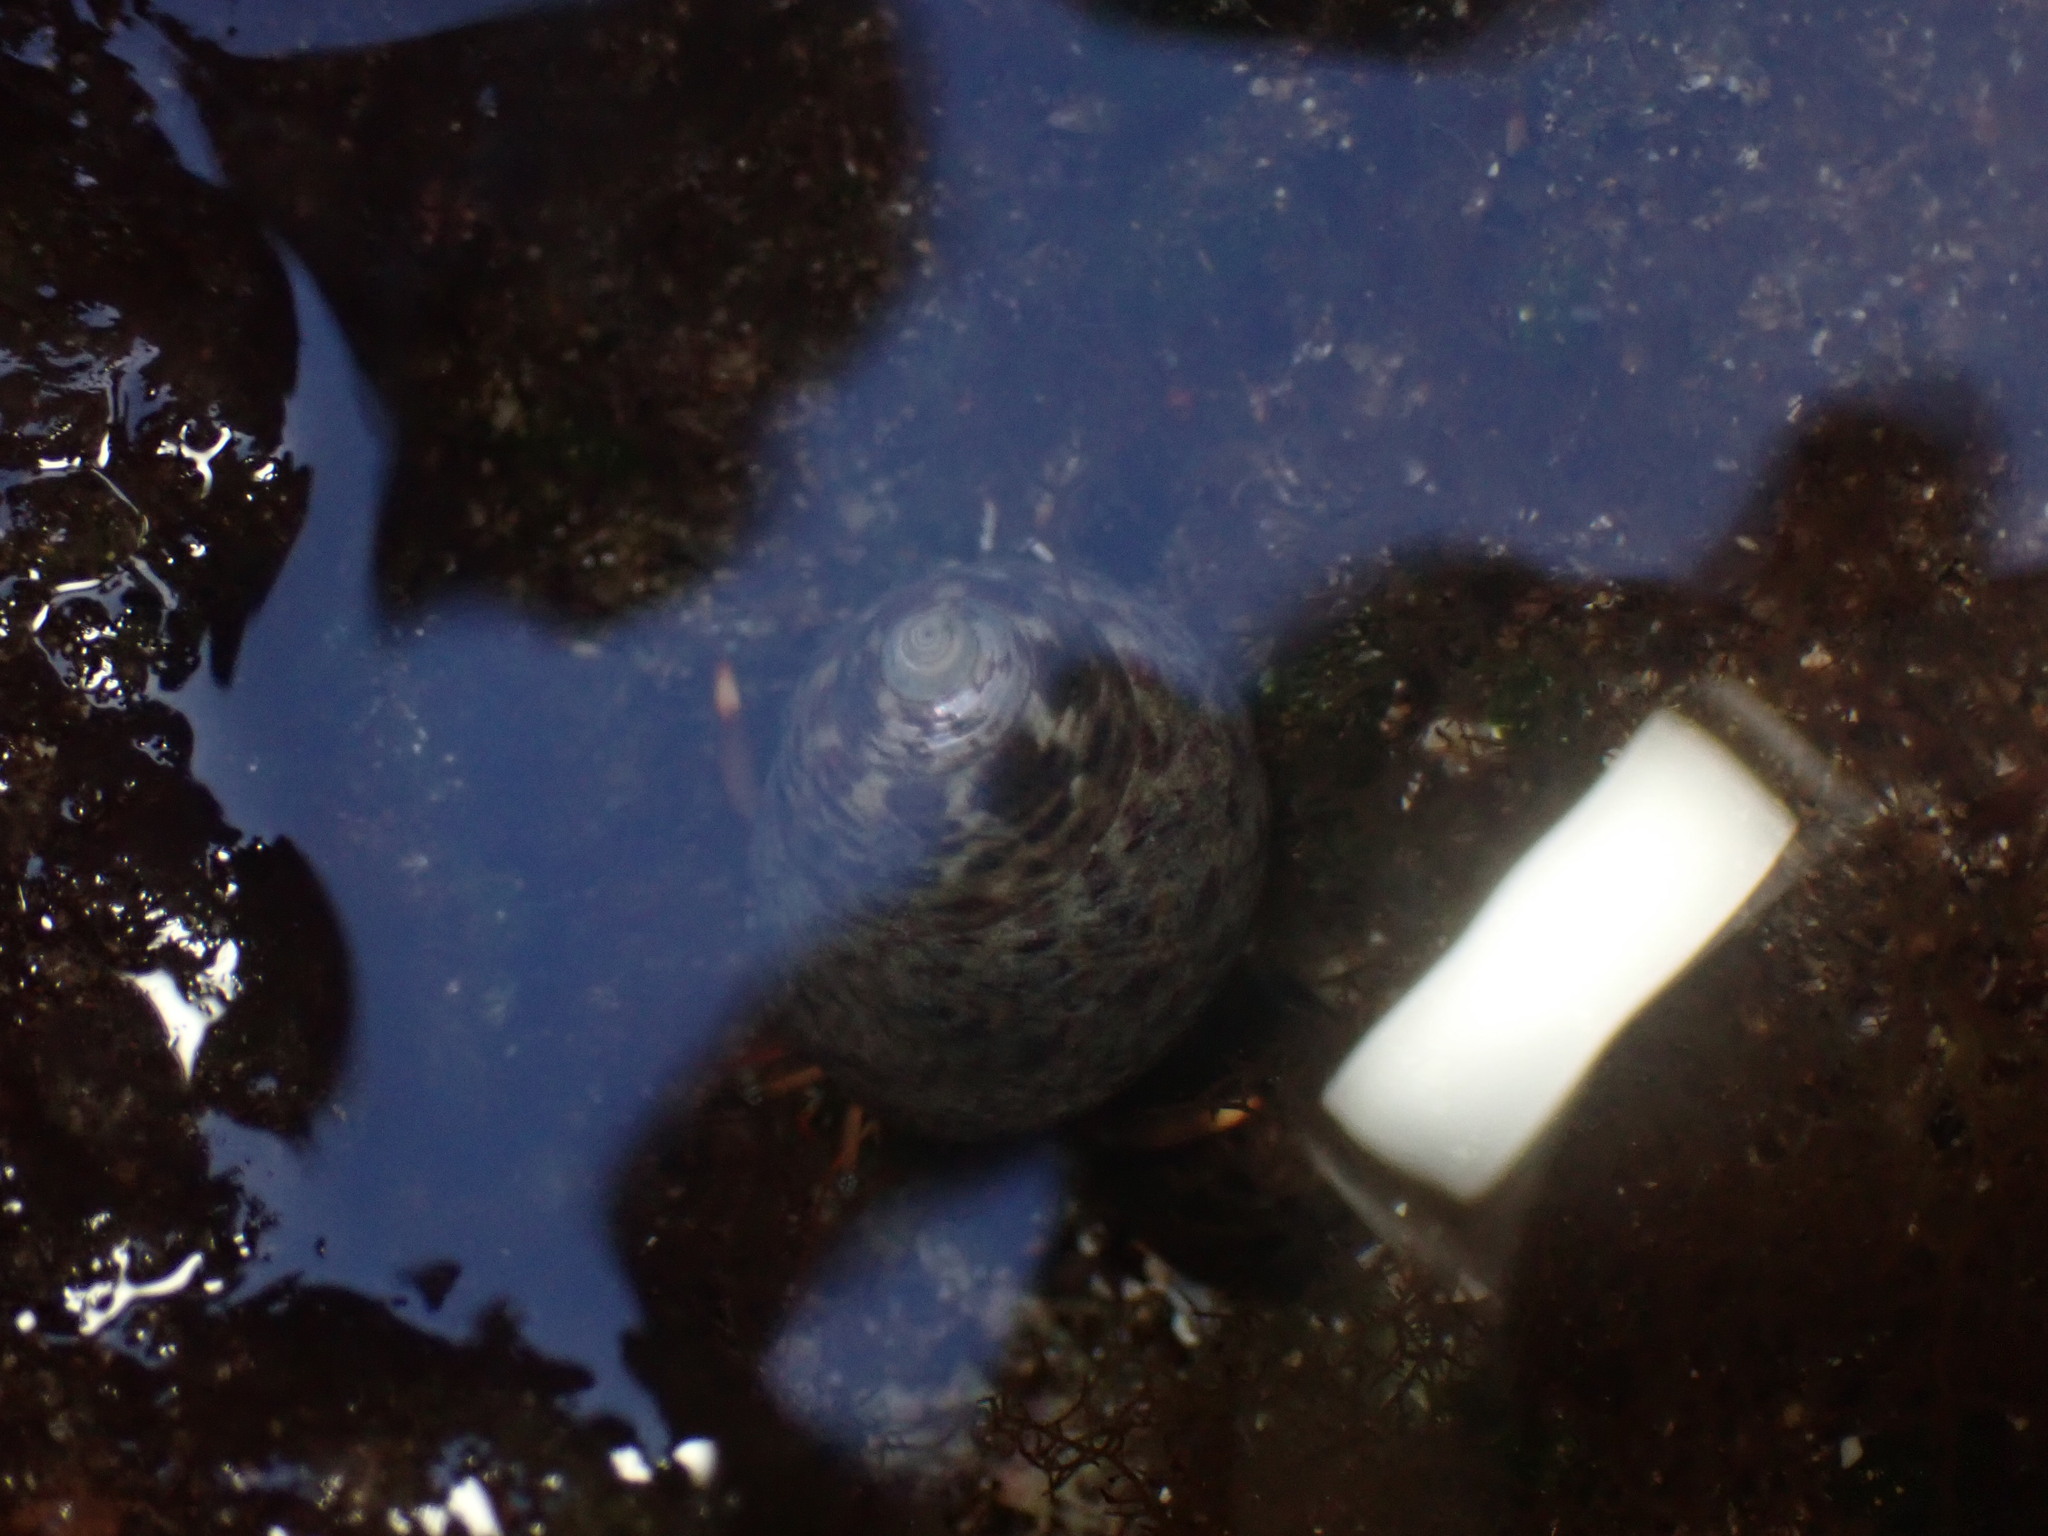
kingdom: Animalia
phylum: Arthropoda
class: Malacostraca
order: Decapoda
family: Diogenidae
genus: Clibanarius
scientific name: Clibanarius aequabilis
